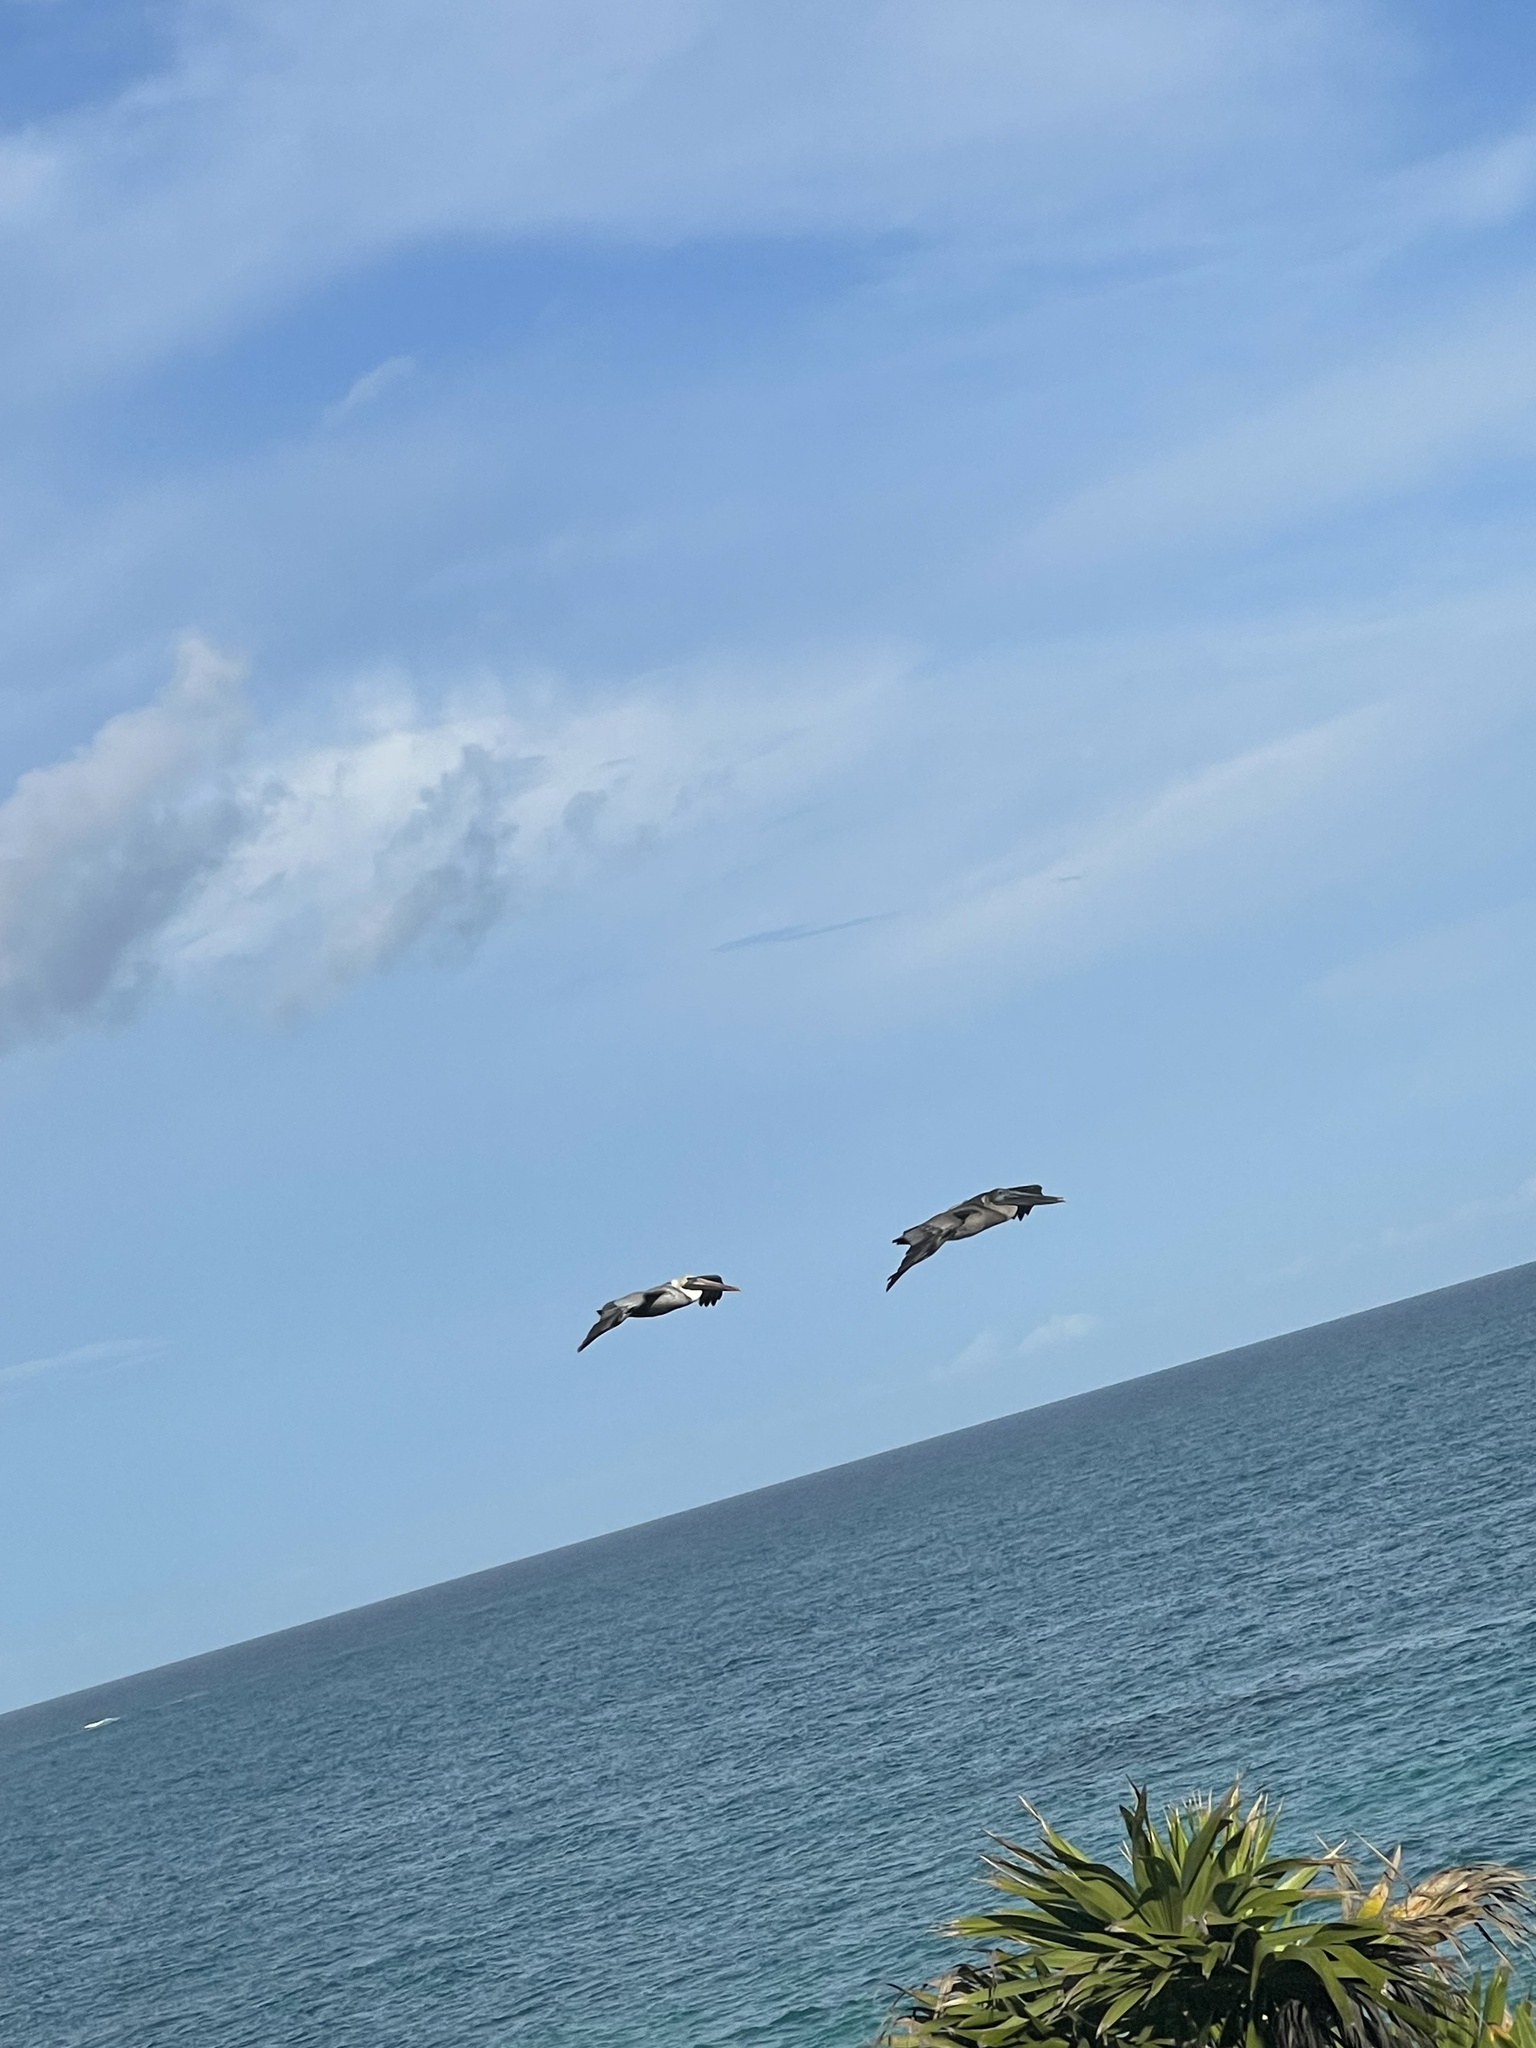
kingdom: Animalia
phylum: Chordata
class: Aves
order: Pelecaniformes
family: Pelecanidae
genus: Pelecanus
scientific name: Pelecanus occidentalis
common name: Brown pelican
